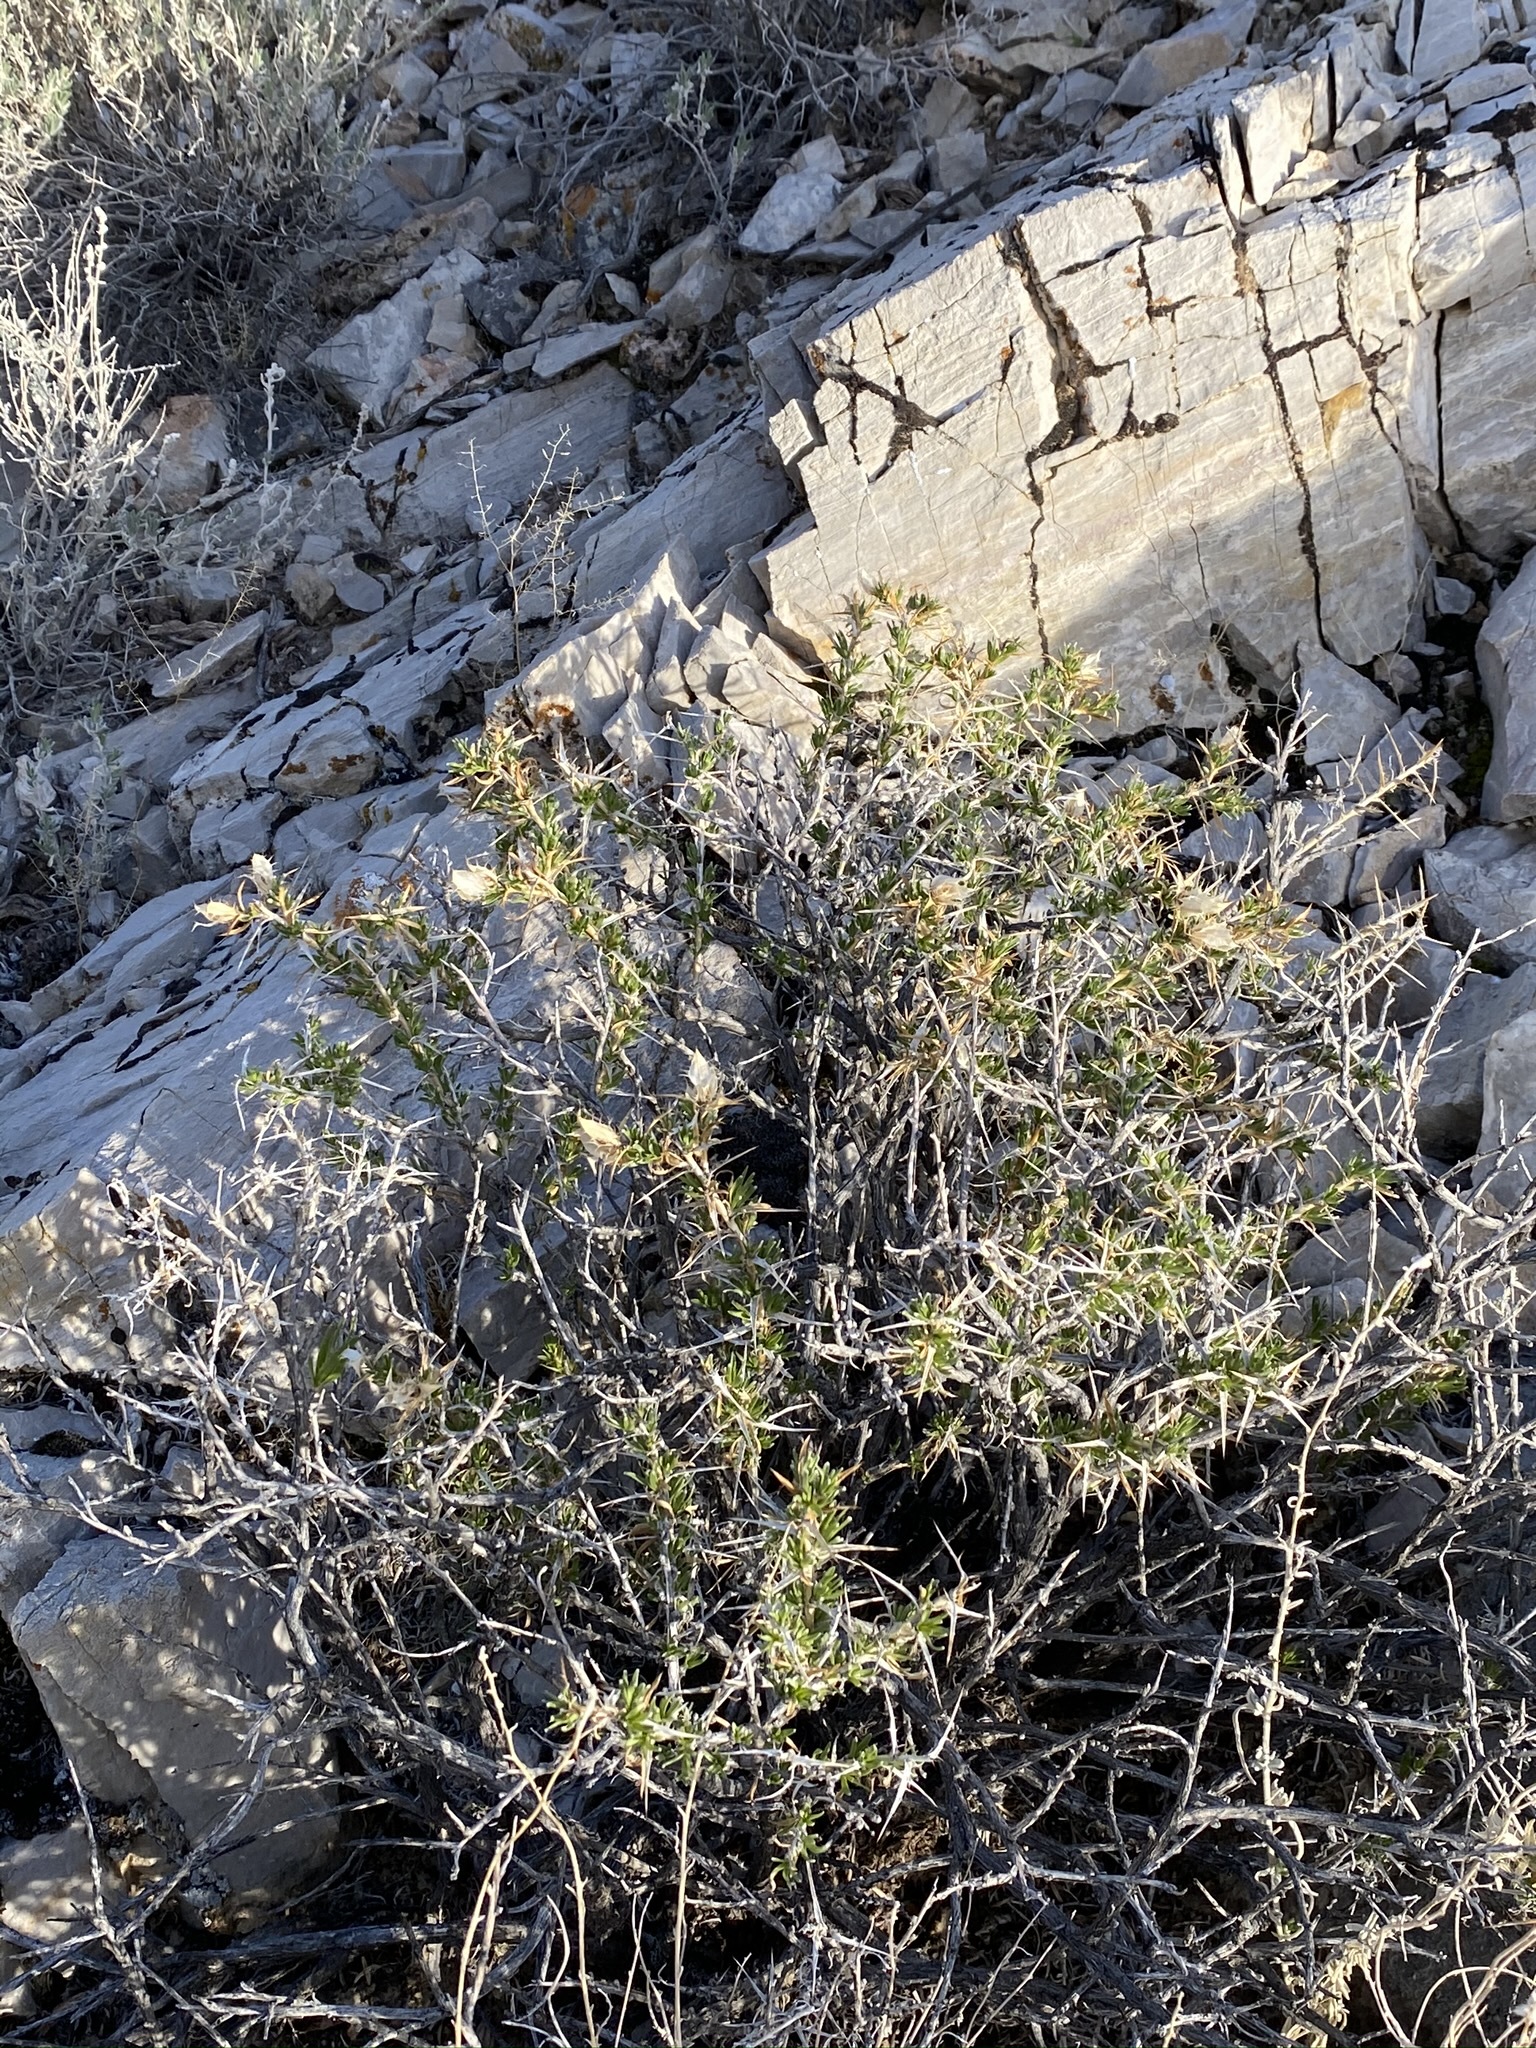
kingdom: Plantae
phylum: Tracheophyta
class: Magnoliopsida
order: Asterales
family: Asteraceae
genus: Hecastocleis
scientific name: Hecastocleis shockleyi
